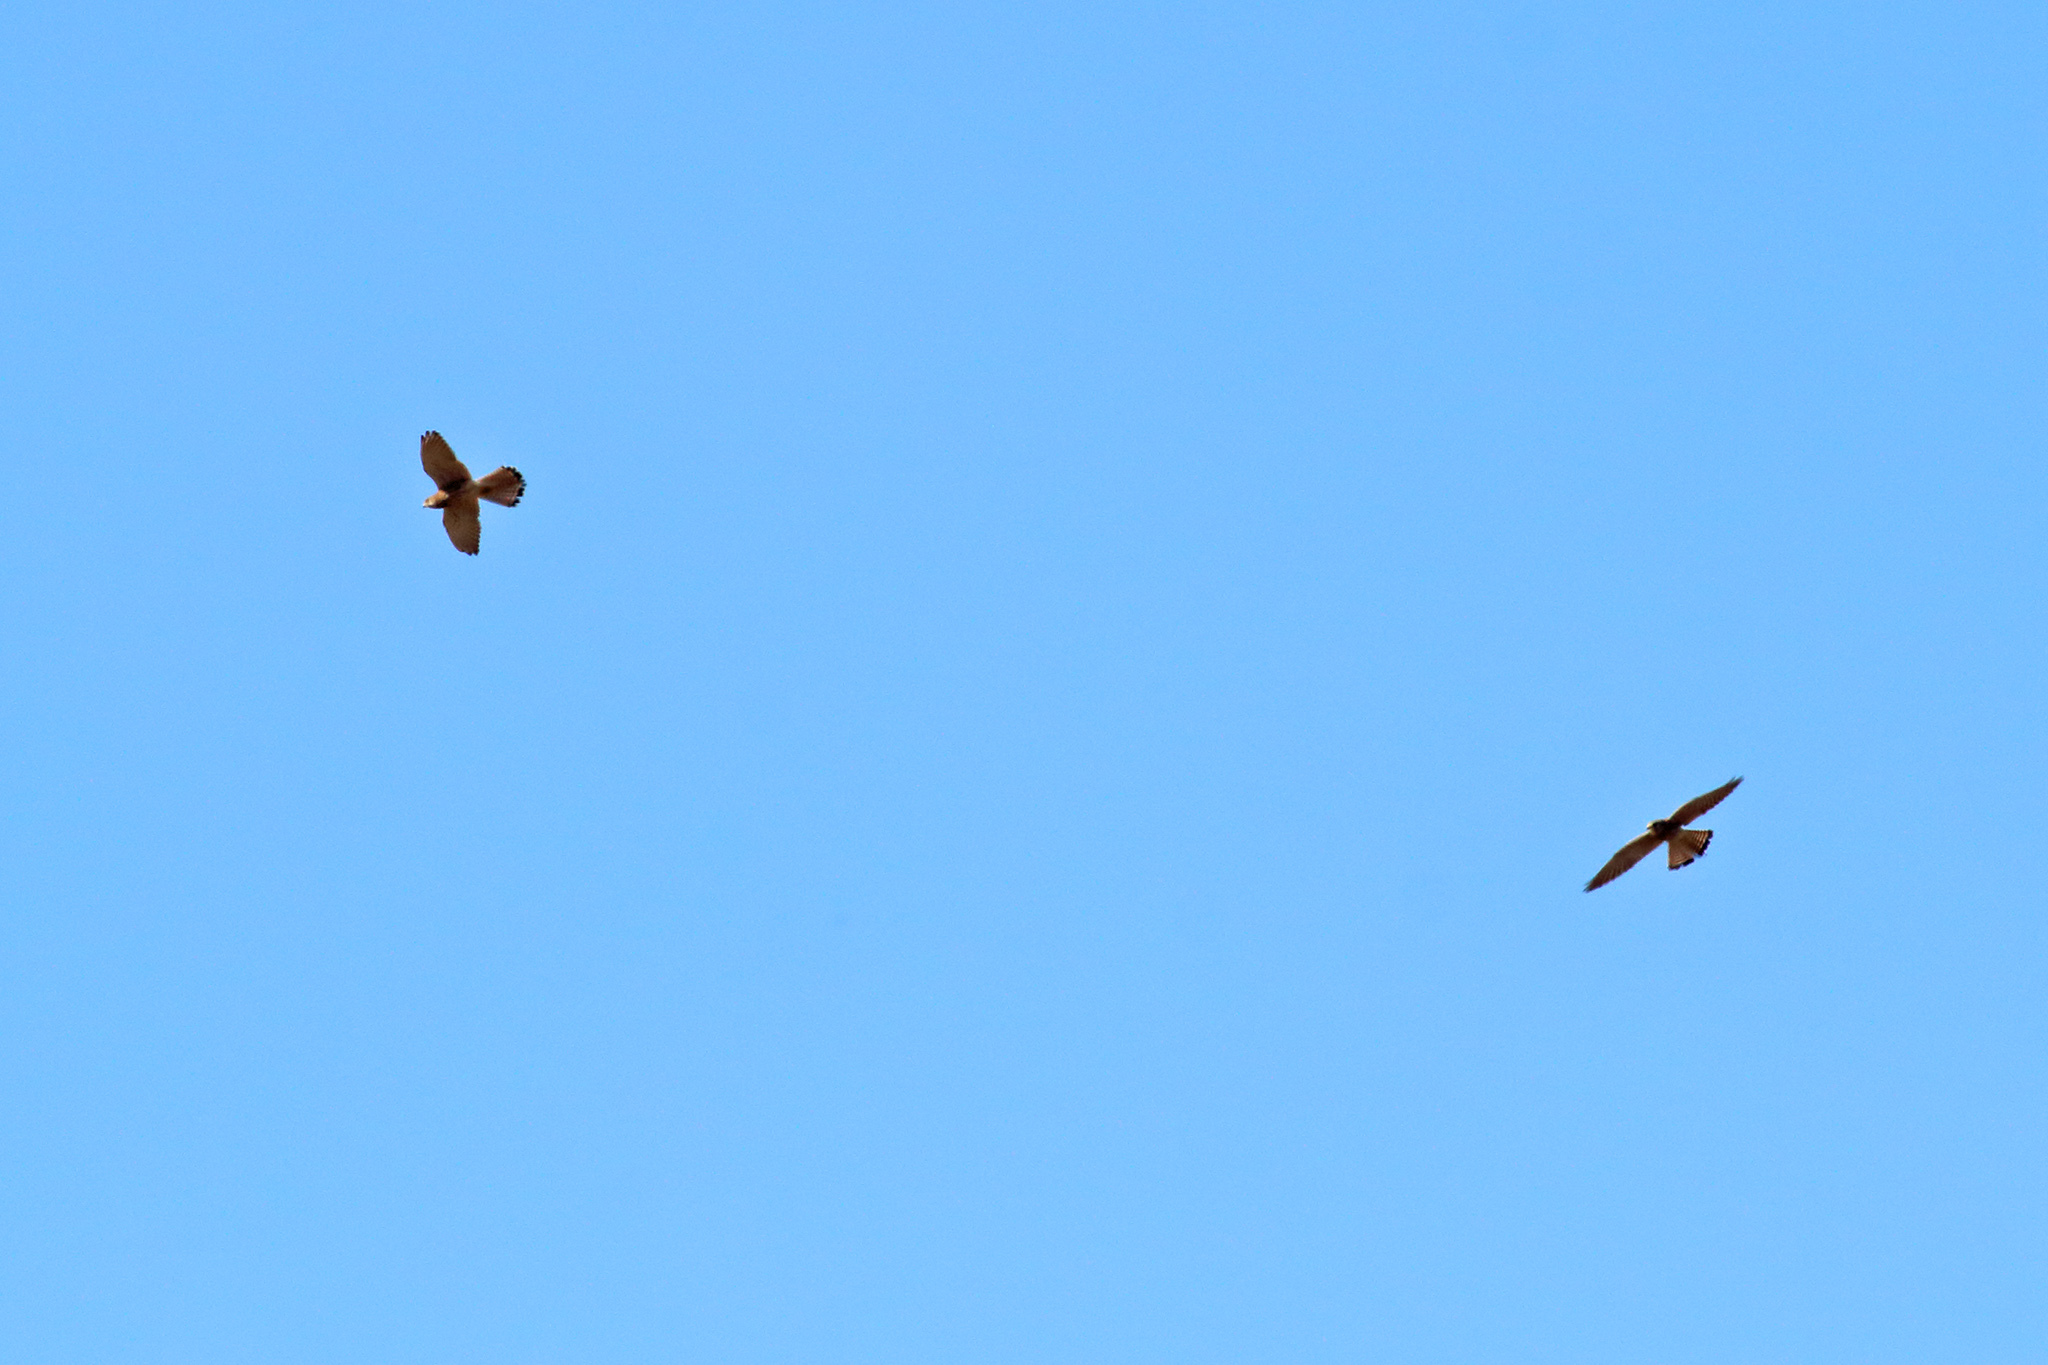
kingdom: Animalia
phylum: Chordata
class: Aves
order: Falconiformes
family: Falconidae
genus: Falco
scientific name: Falco tinnunculus
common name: Common kestrel
